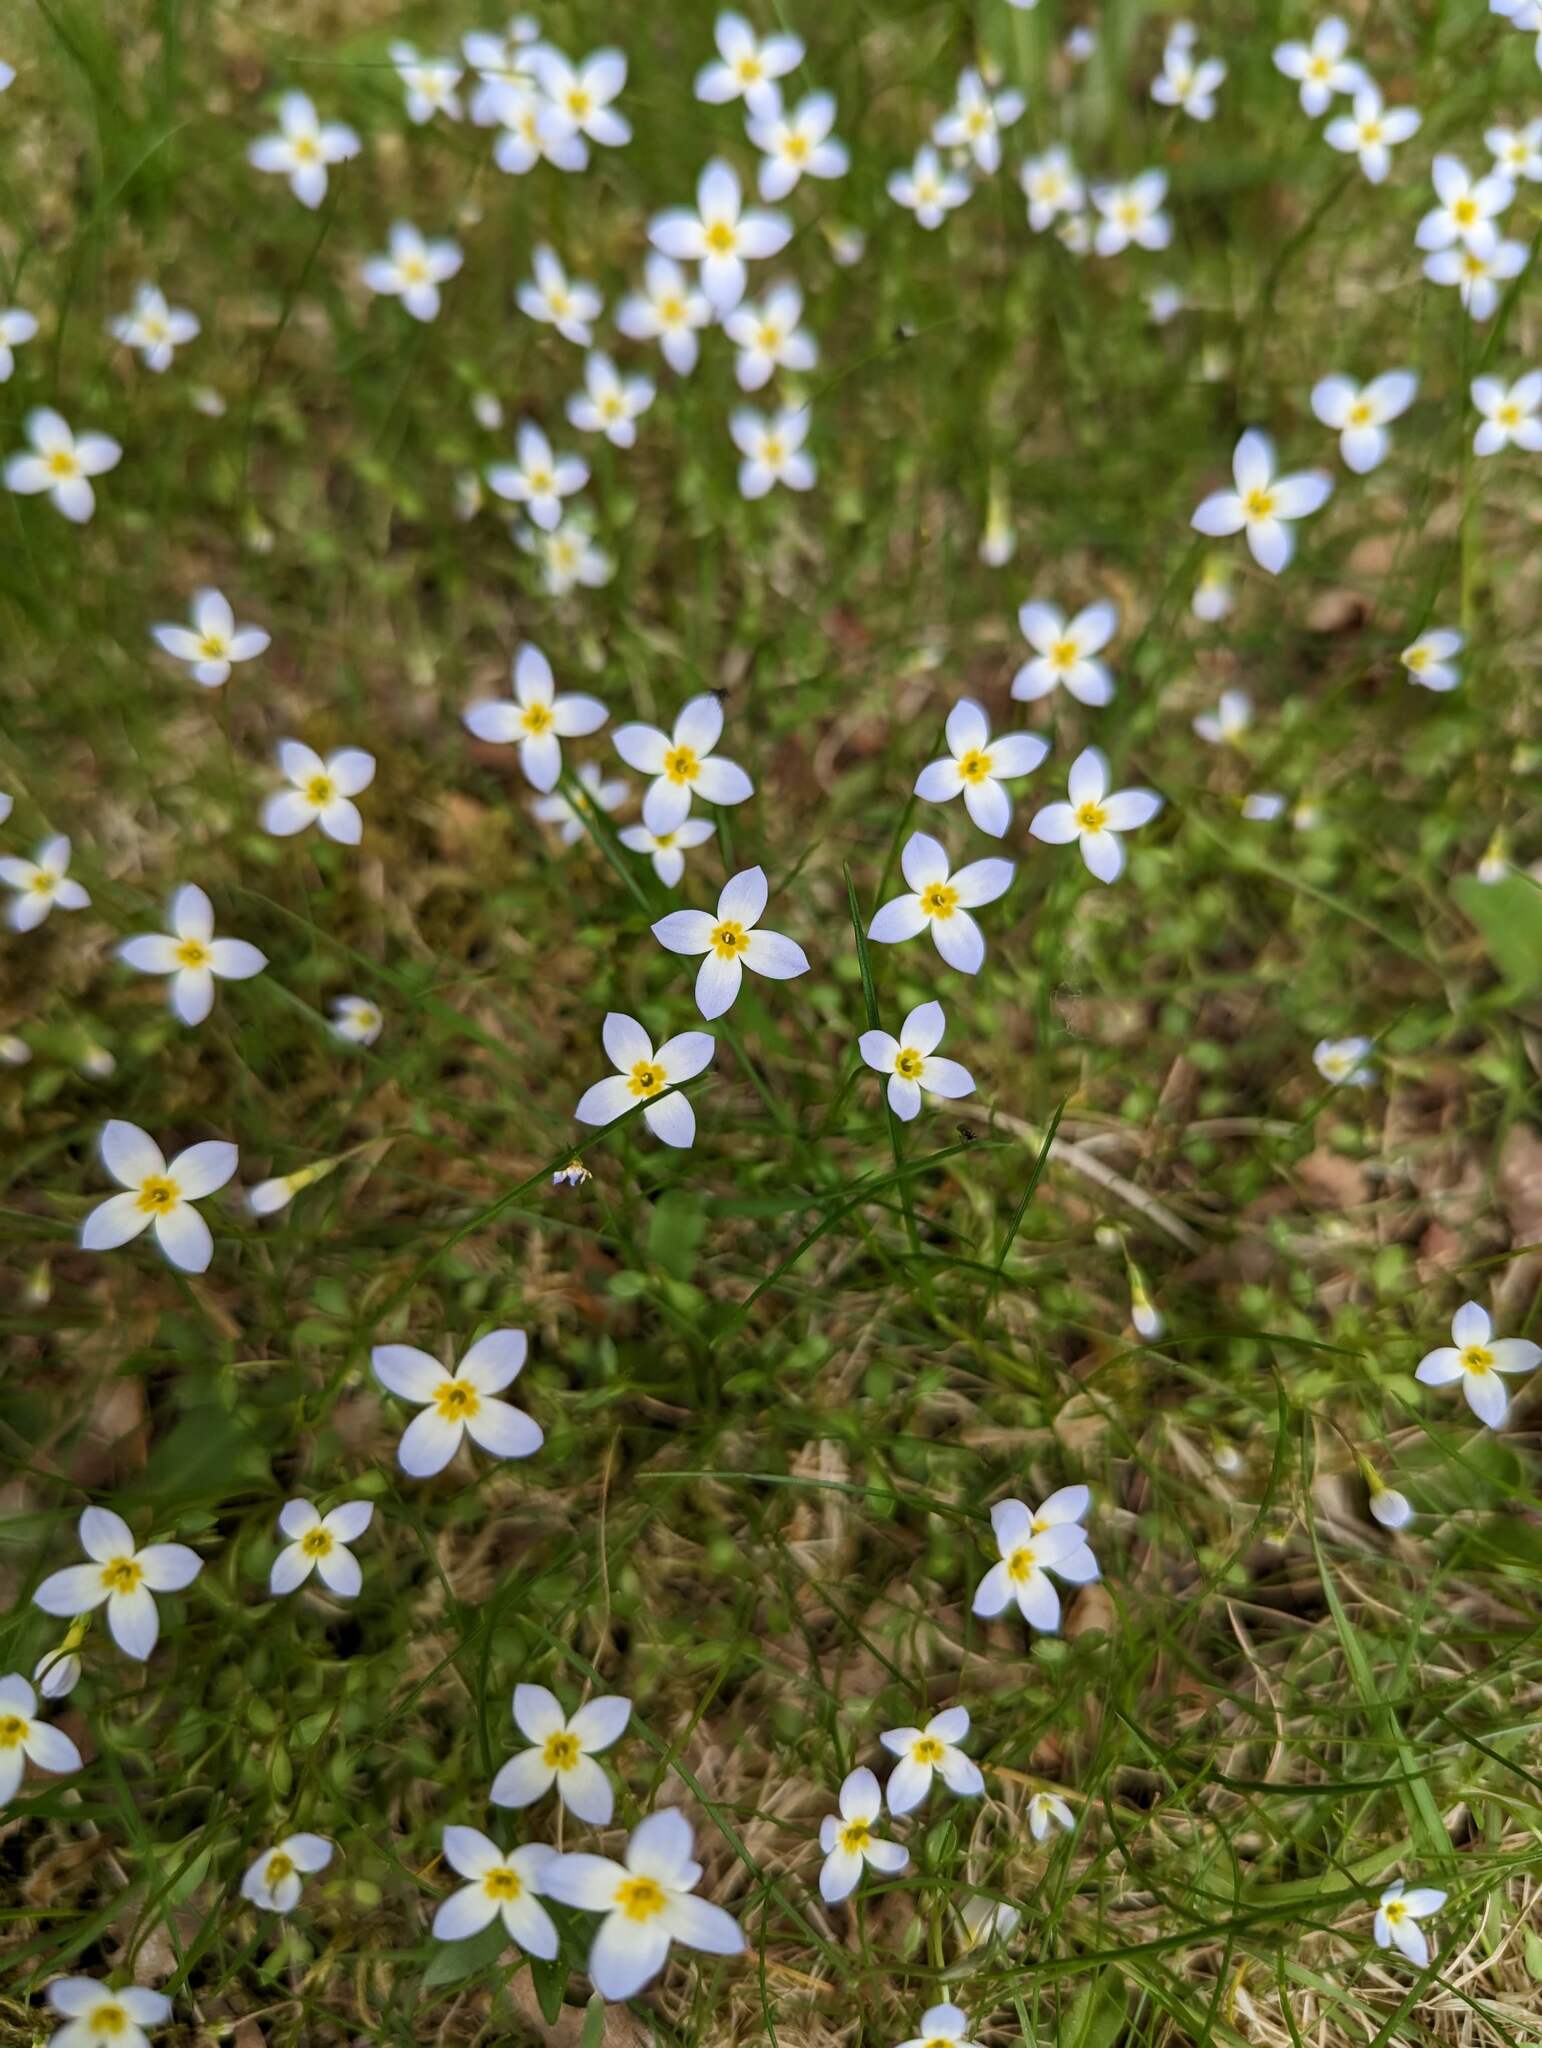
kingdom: Plantae
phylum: Tracheophyta
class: Magnoliopsida
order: Gentianales
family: Rubiaceae
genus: Houstonia
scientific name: Houstonia caerulea
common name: Bluets
